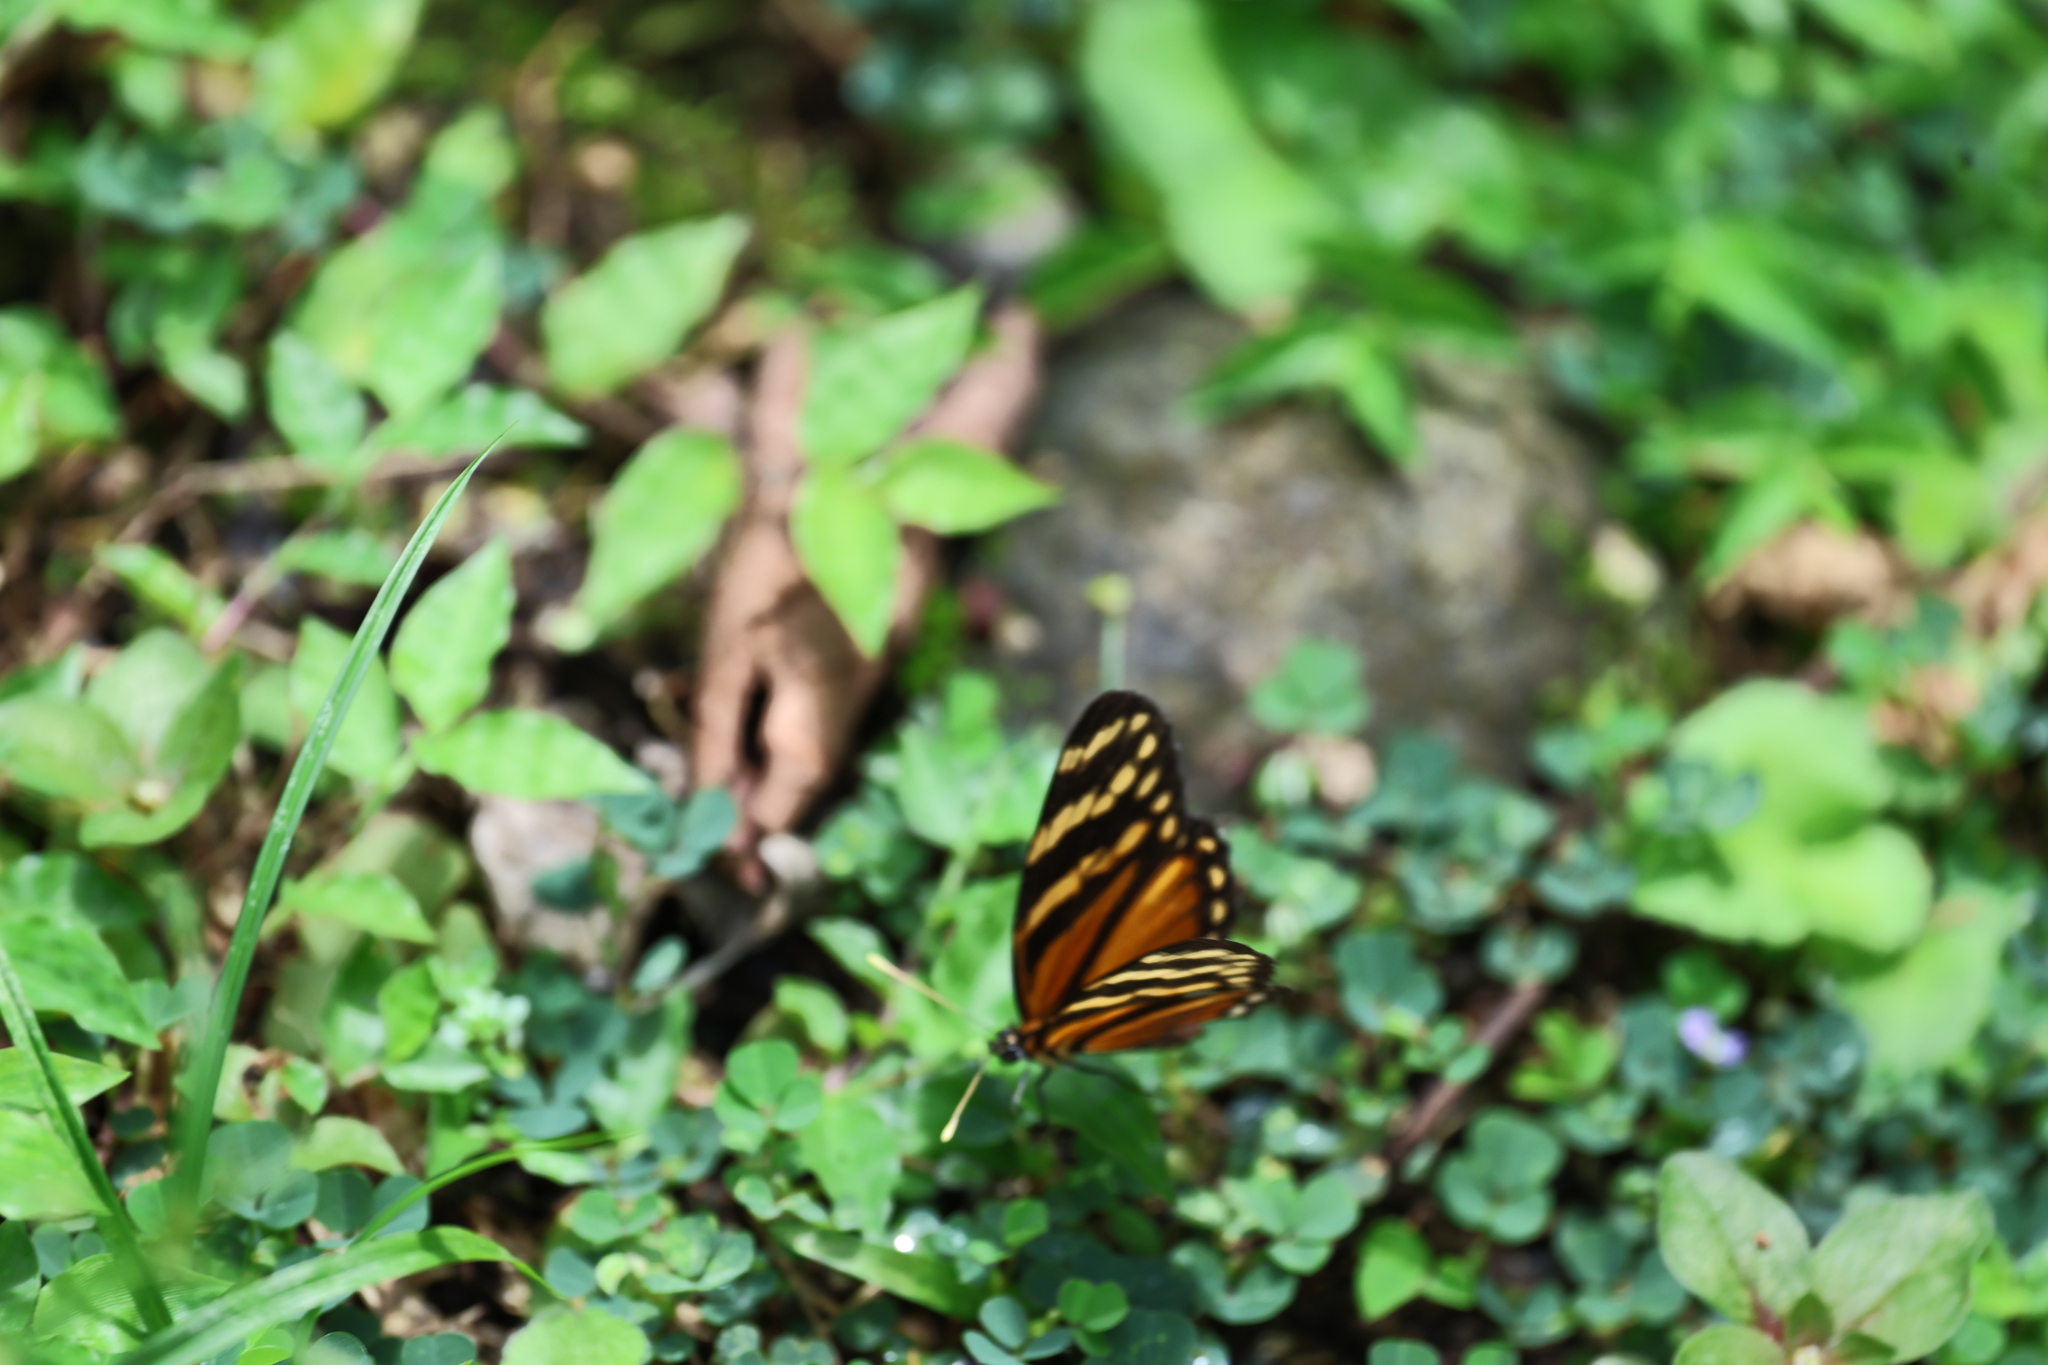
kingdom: Animalia
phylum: Arthropoda
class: Insecta
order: Lepidoptera
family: Nymphalidae
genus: Eresia
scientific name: Eresia ithomioides
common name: Variable crescent
